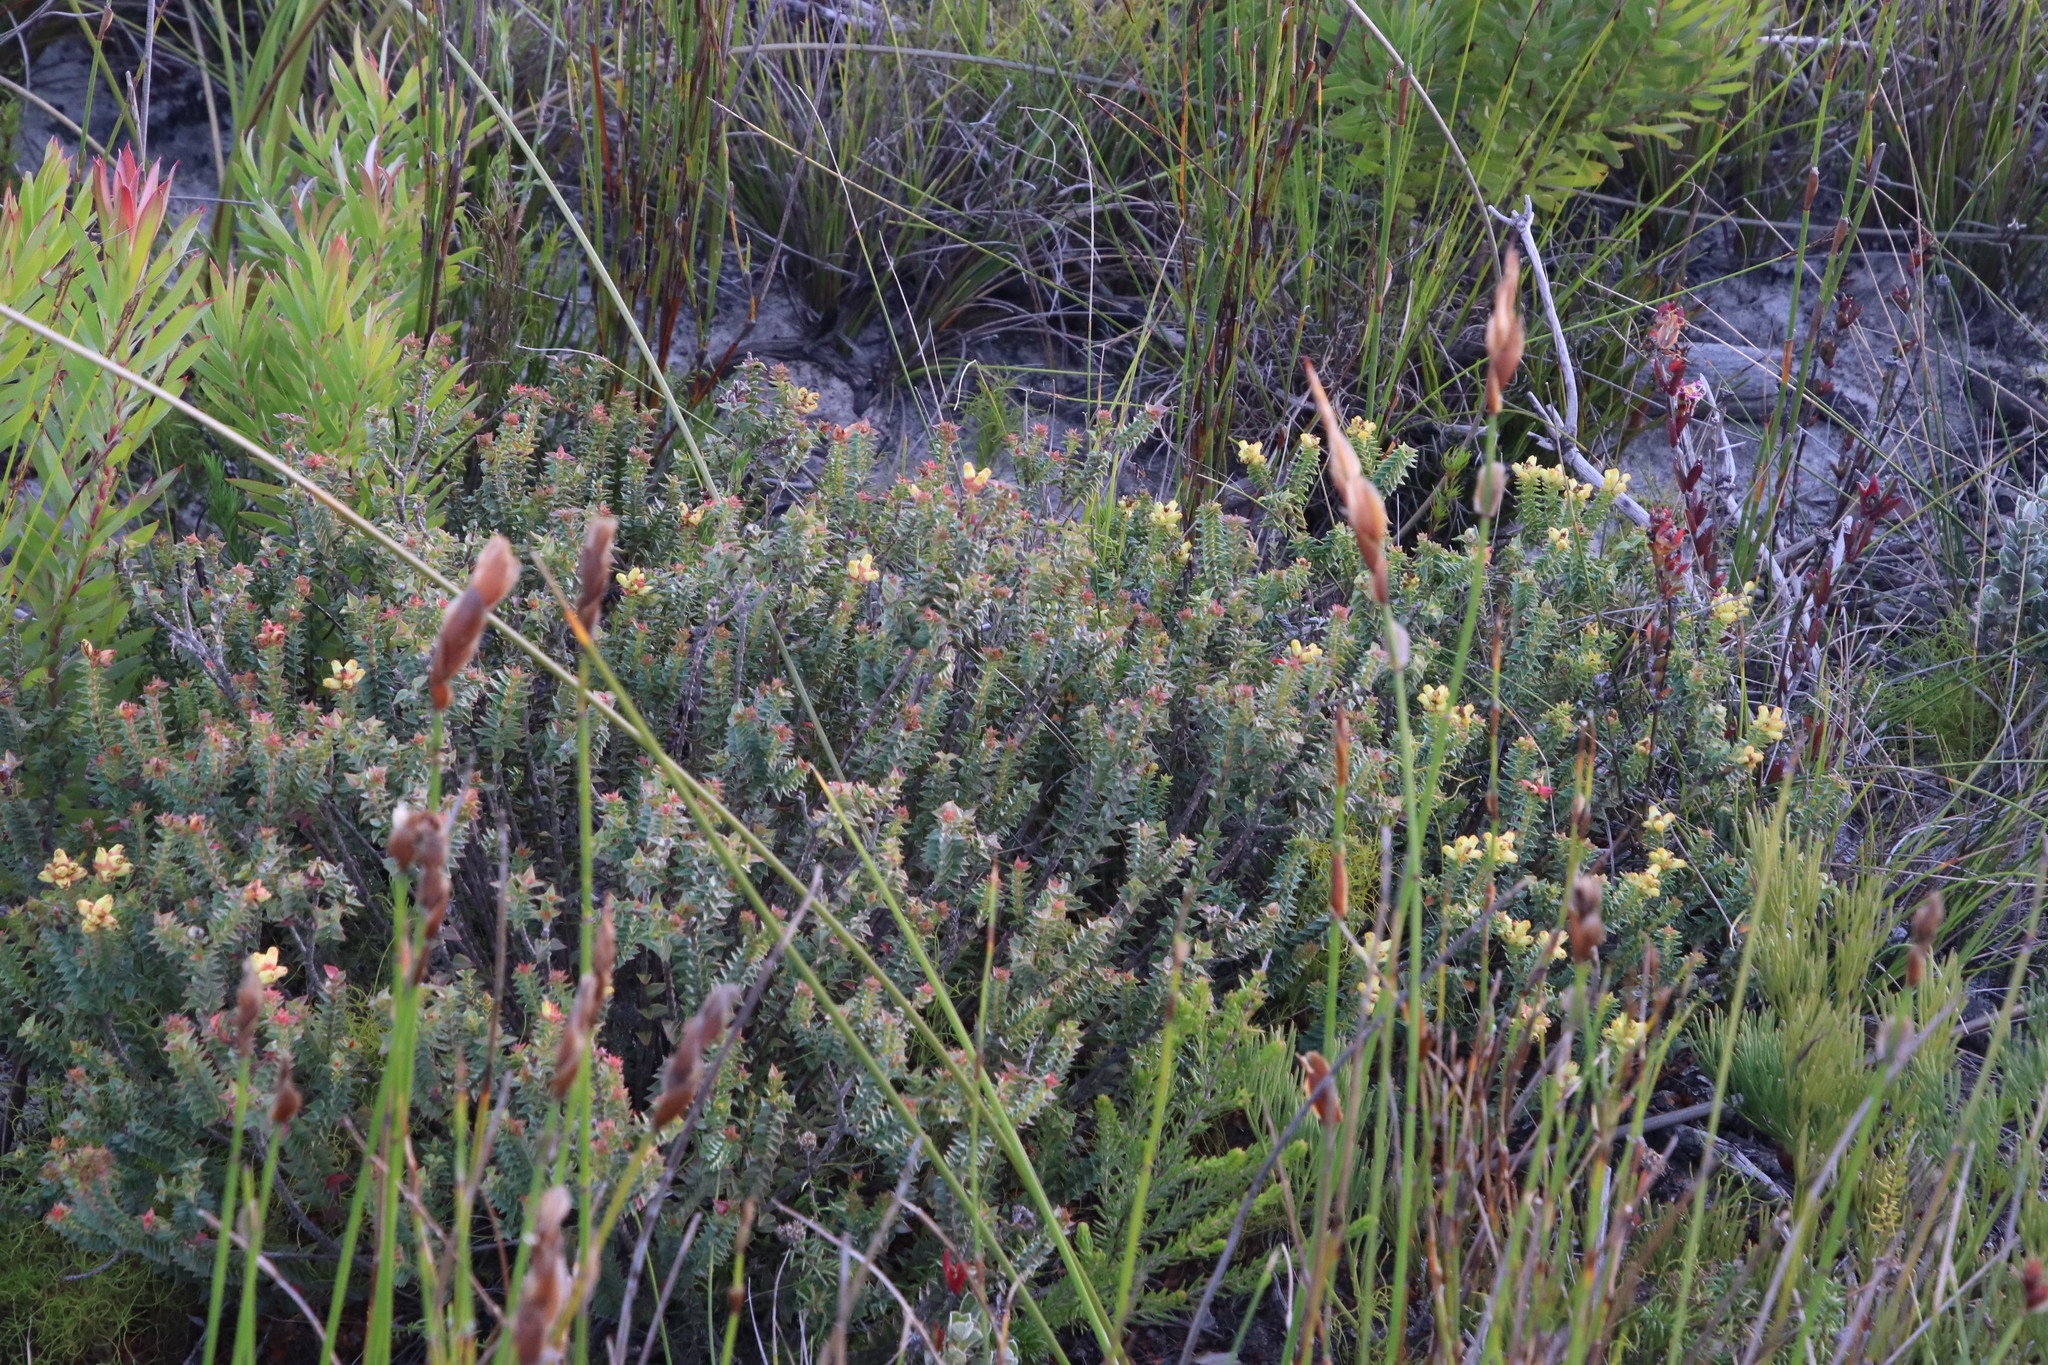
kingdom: Plantae
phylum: Tracheophyta
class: Magnoliopsida
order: Myrtales
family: Penaeaceae
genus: Penaea
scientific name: Penaea mucronata
